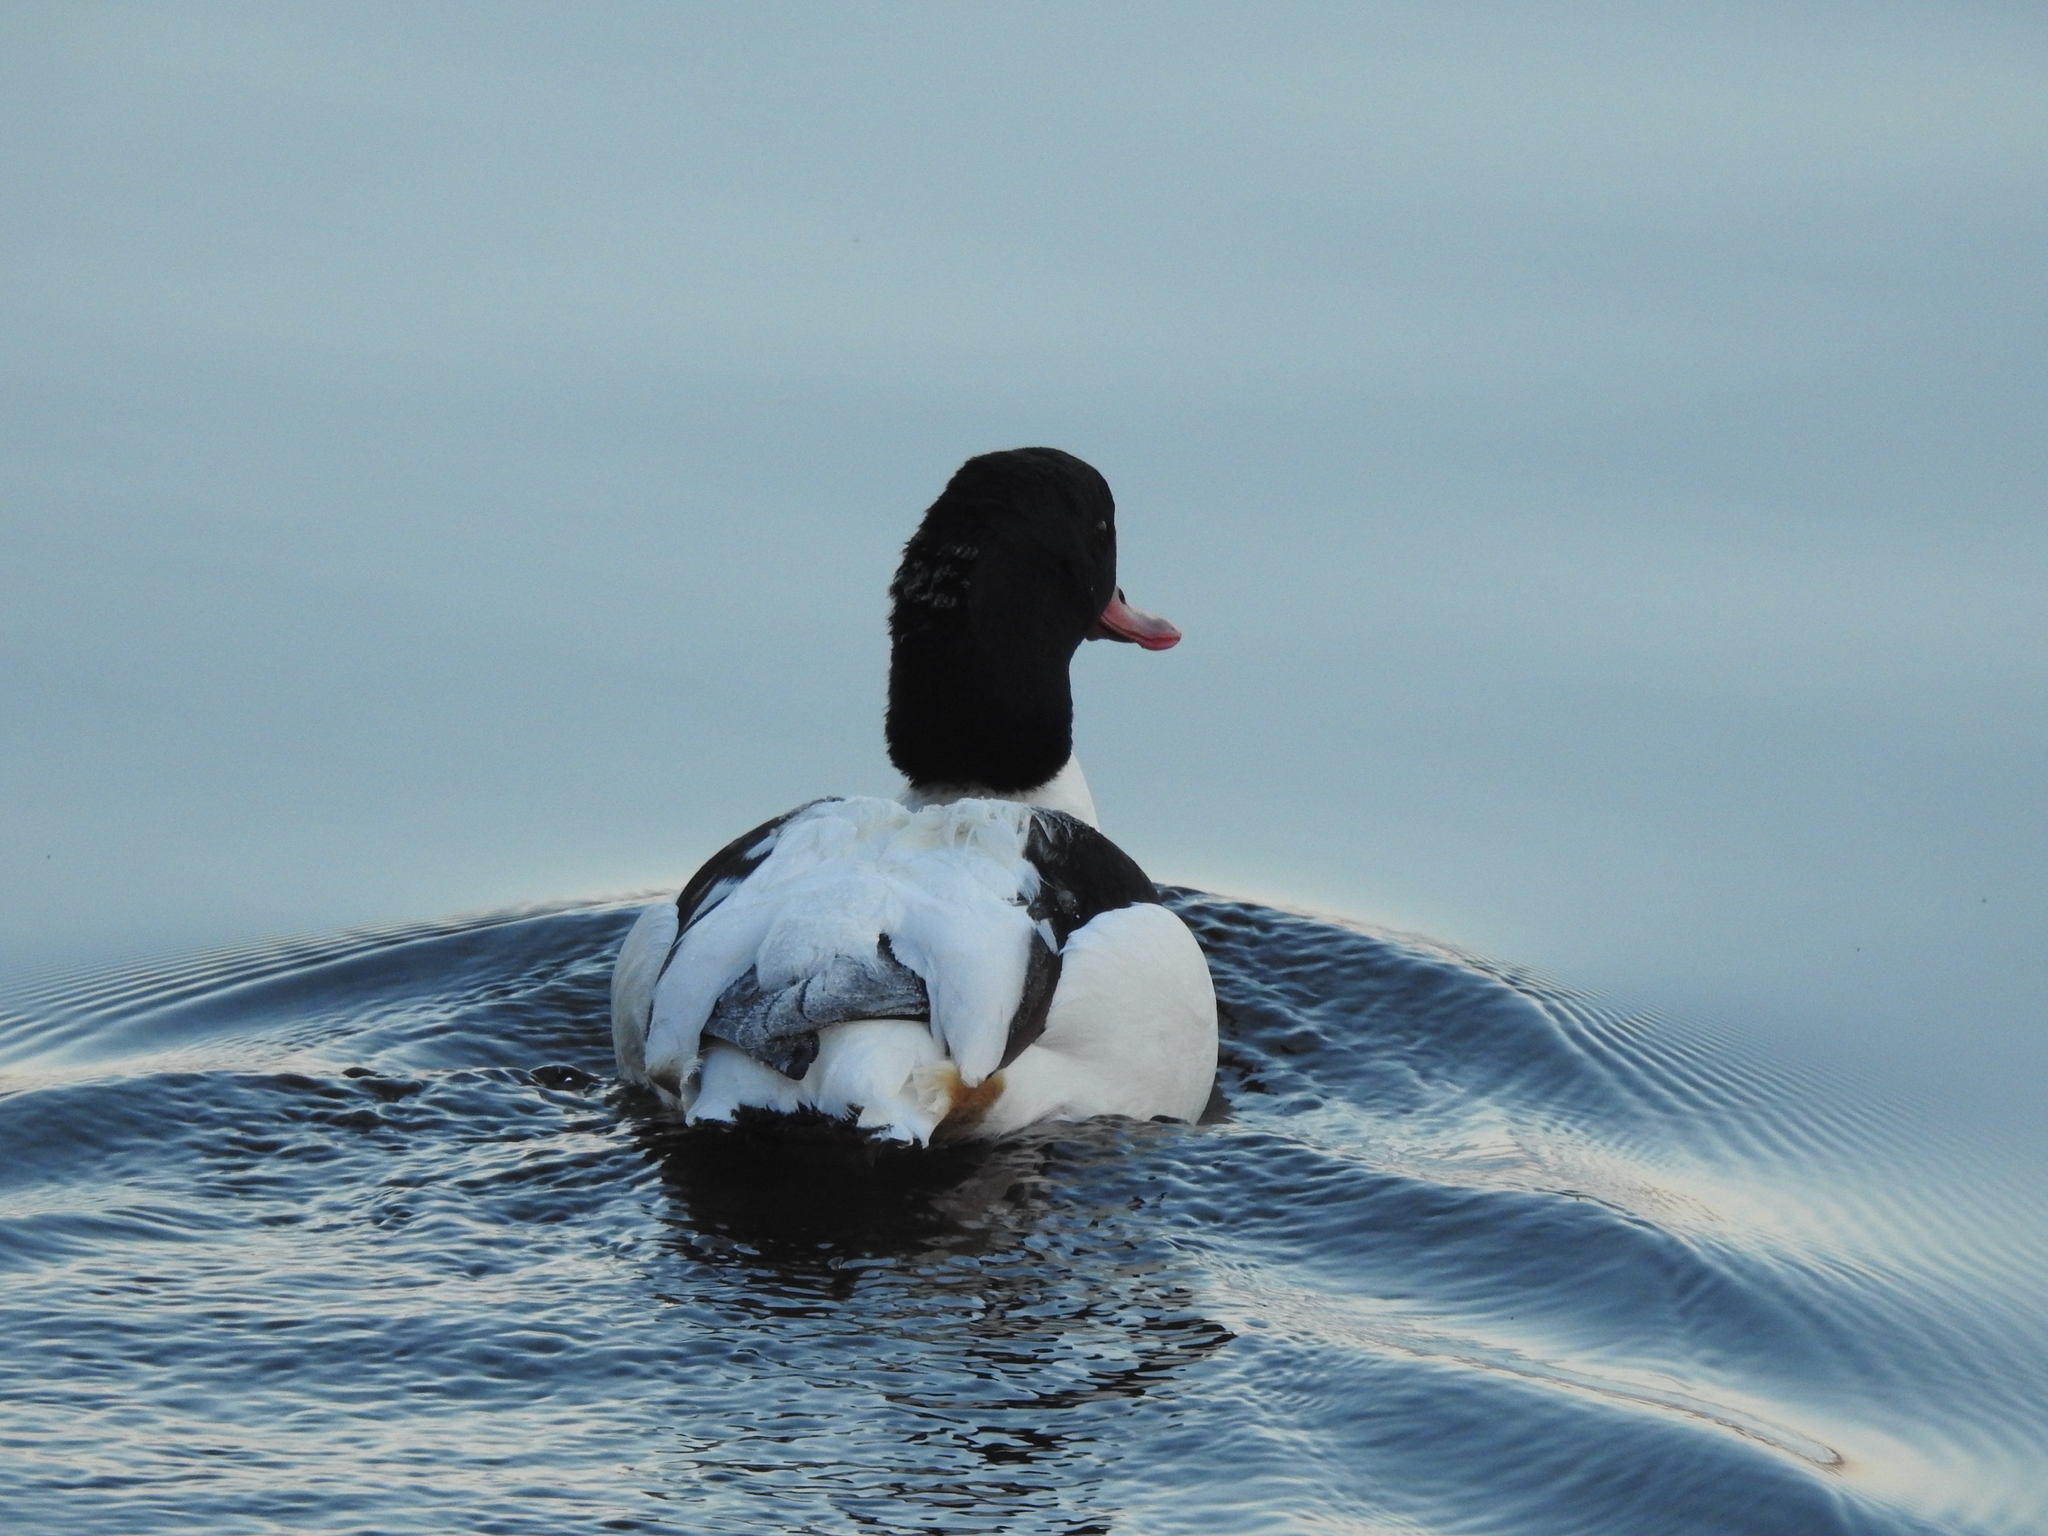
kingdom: Animalia
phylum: Chordata
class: Aves
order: Anseriformes
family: Anatidae
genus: Tadorna
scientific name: Tadorna tadorna
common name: Common shelduck
